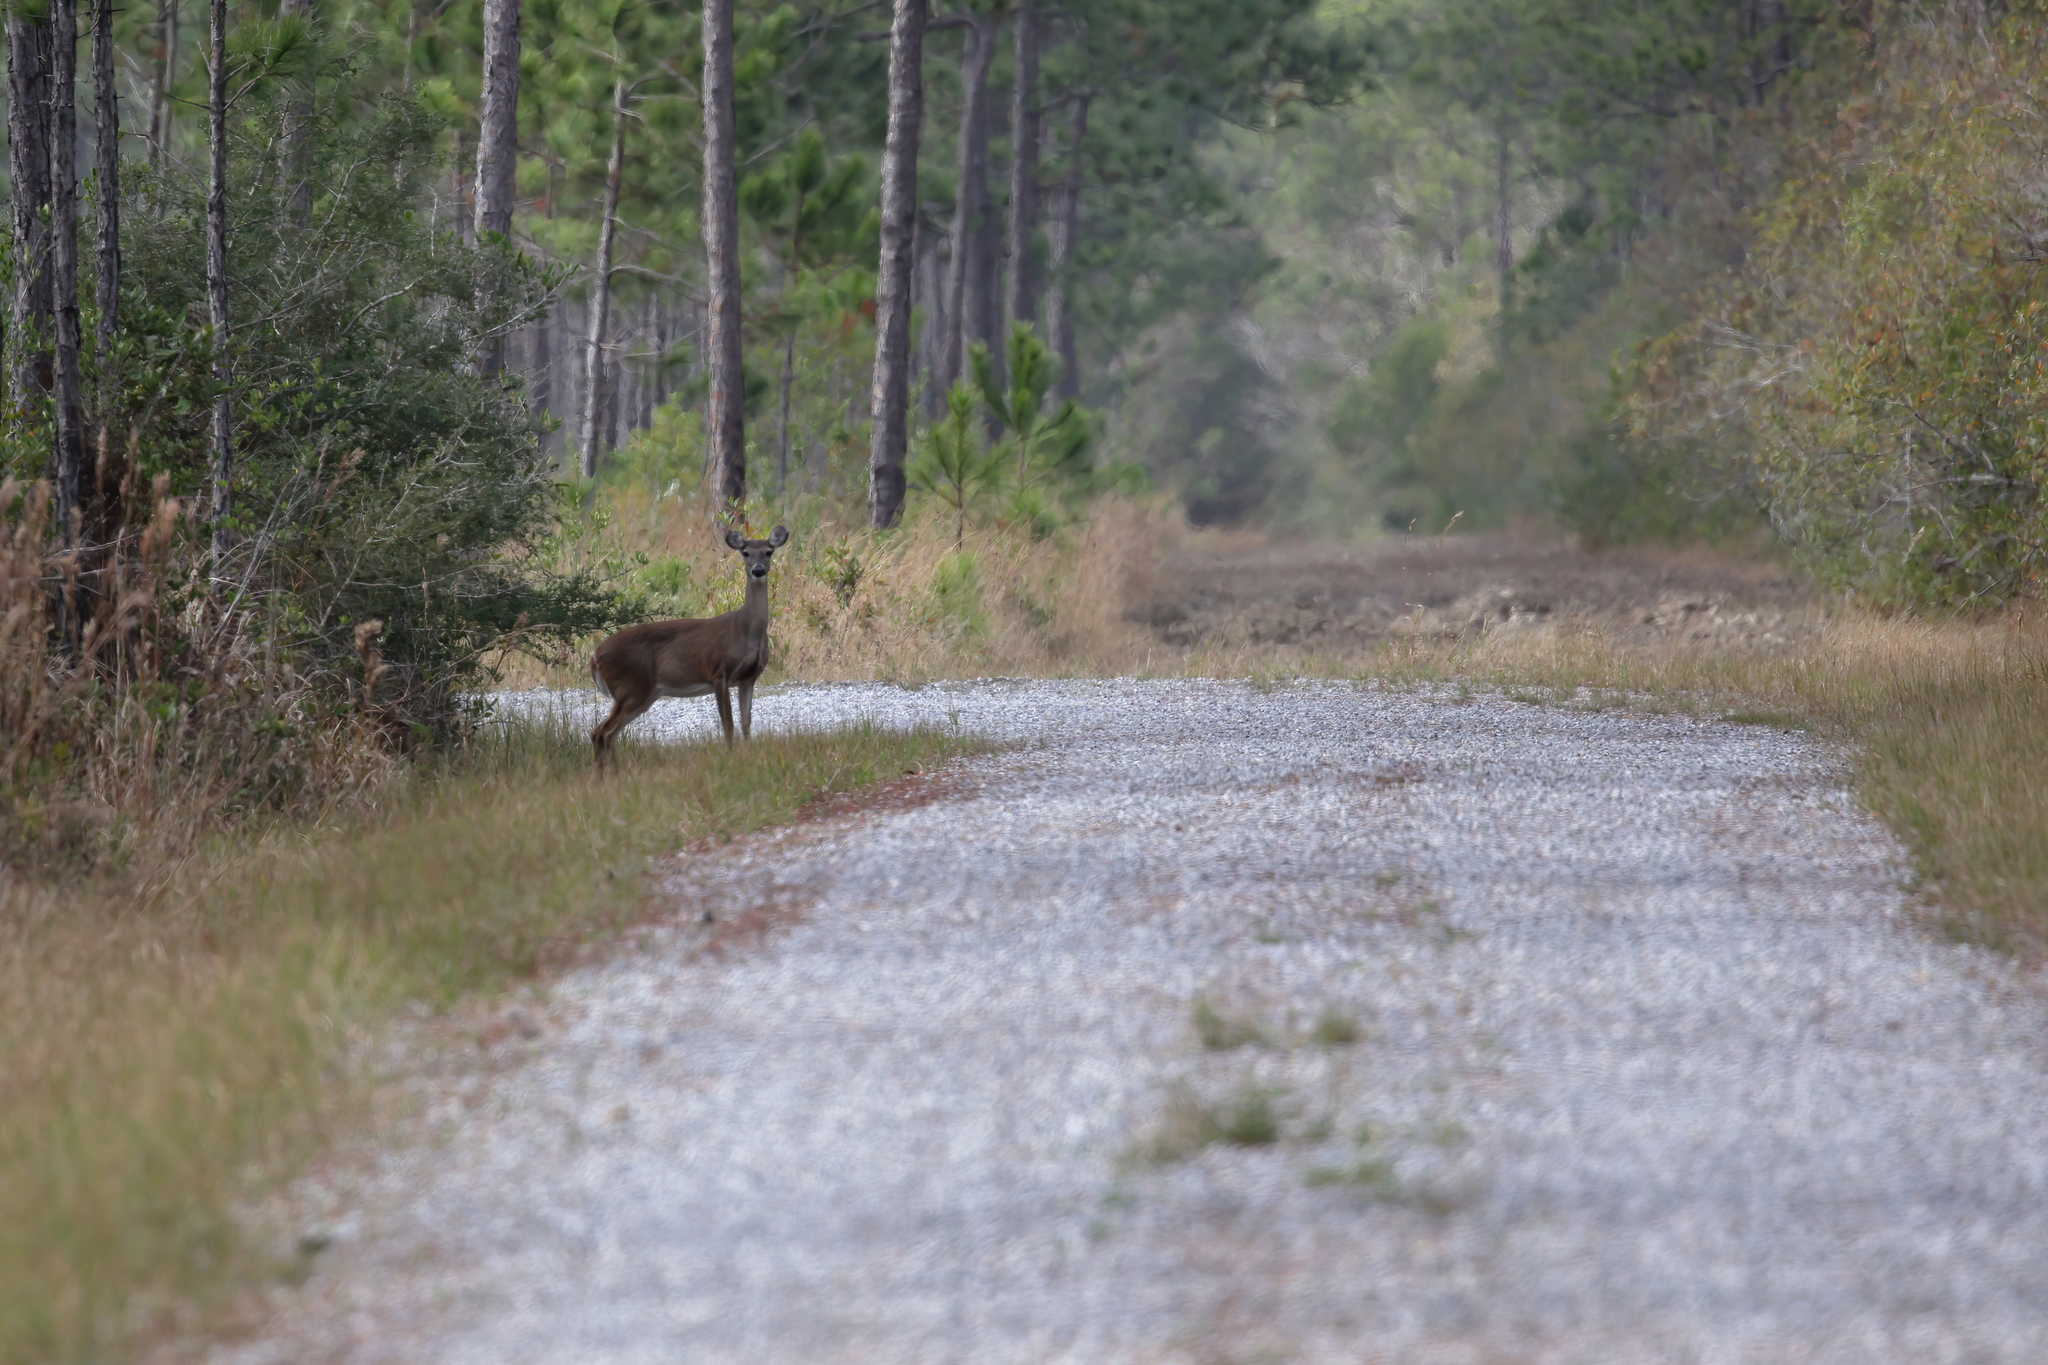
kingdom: Animalia
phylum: Chordata
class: Mammalia
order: Artiodactyla
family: Cervidae
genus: Odocoileus
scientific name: Odocoileus virginianus
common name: White-tailed deer
